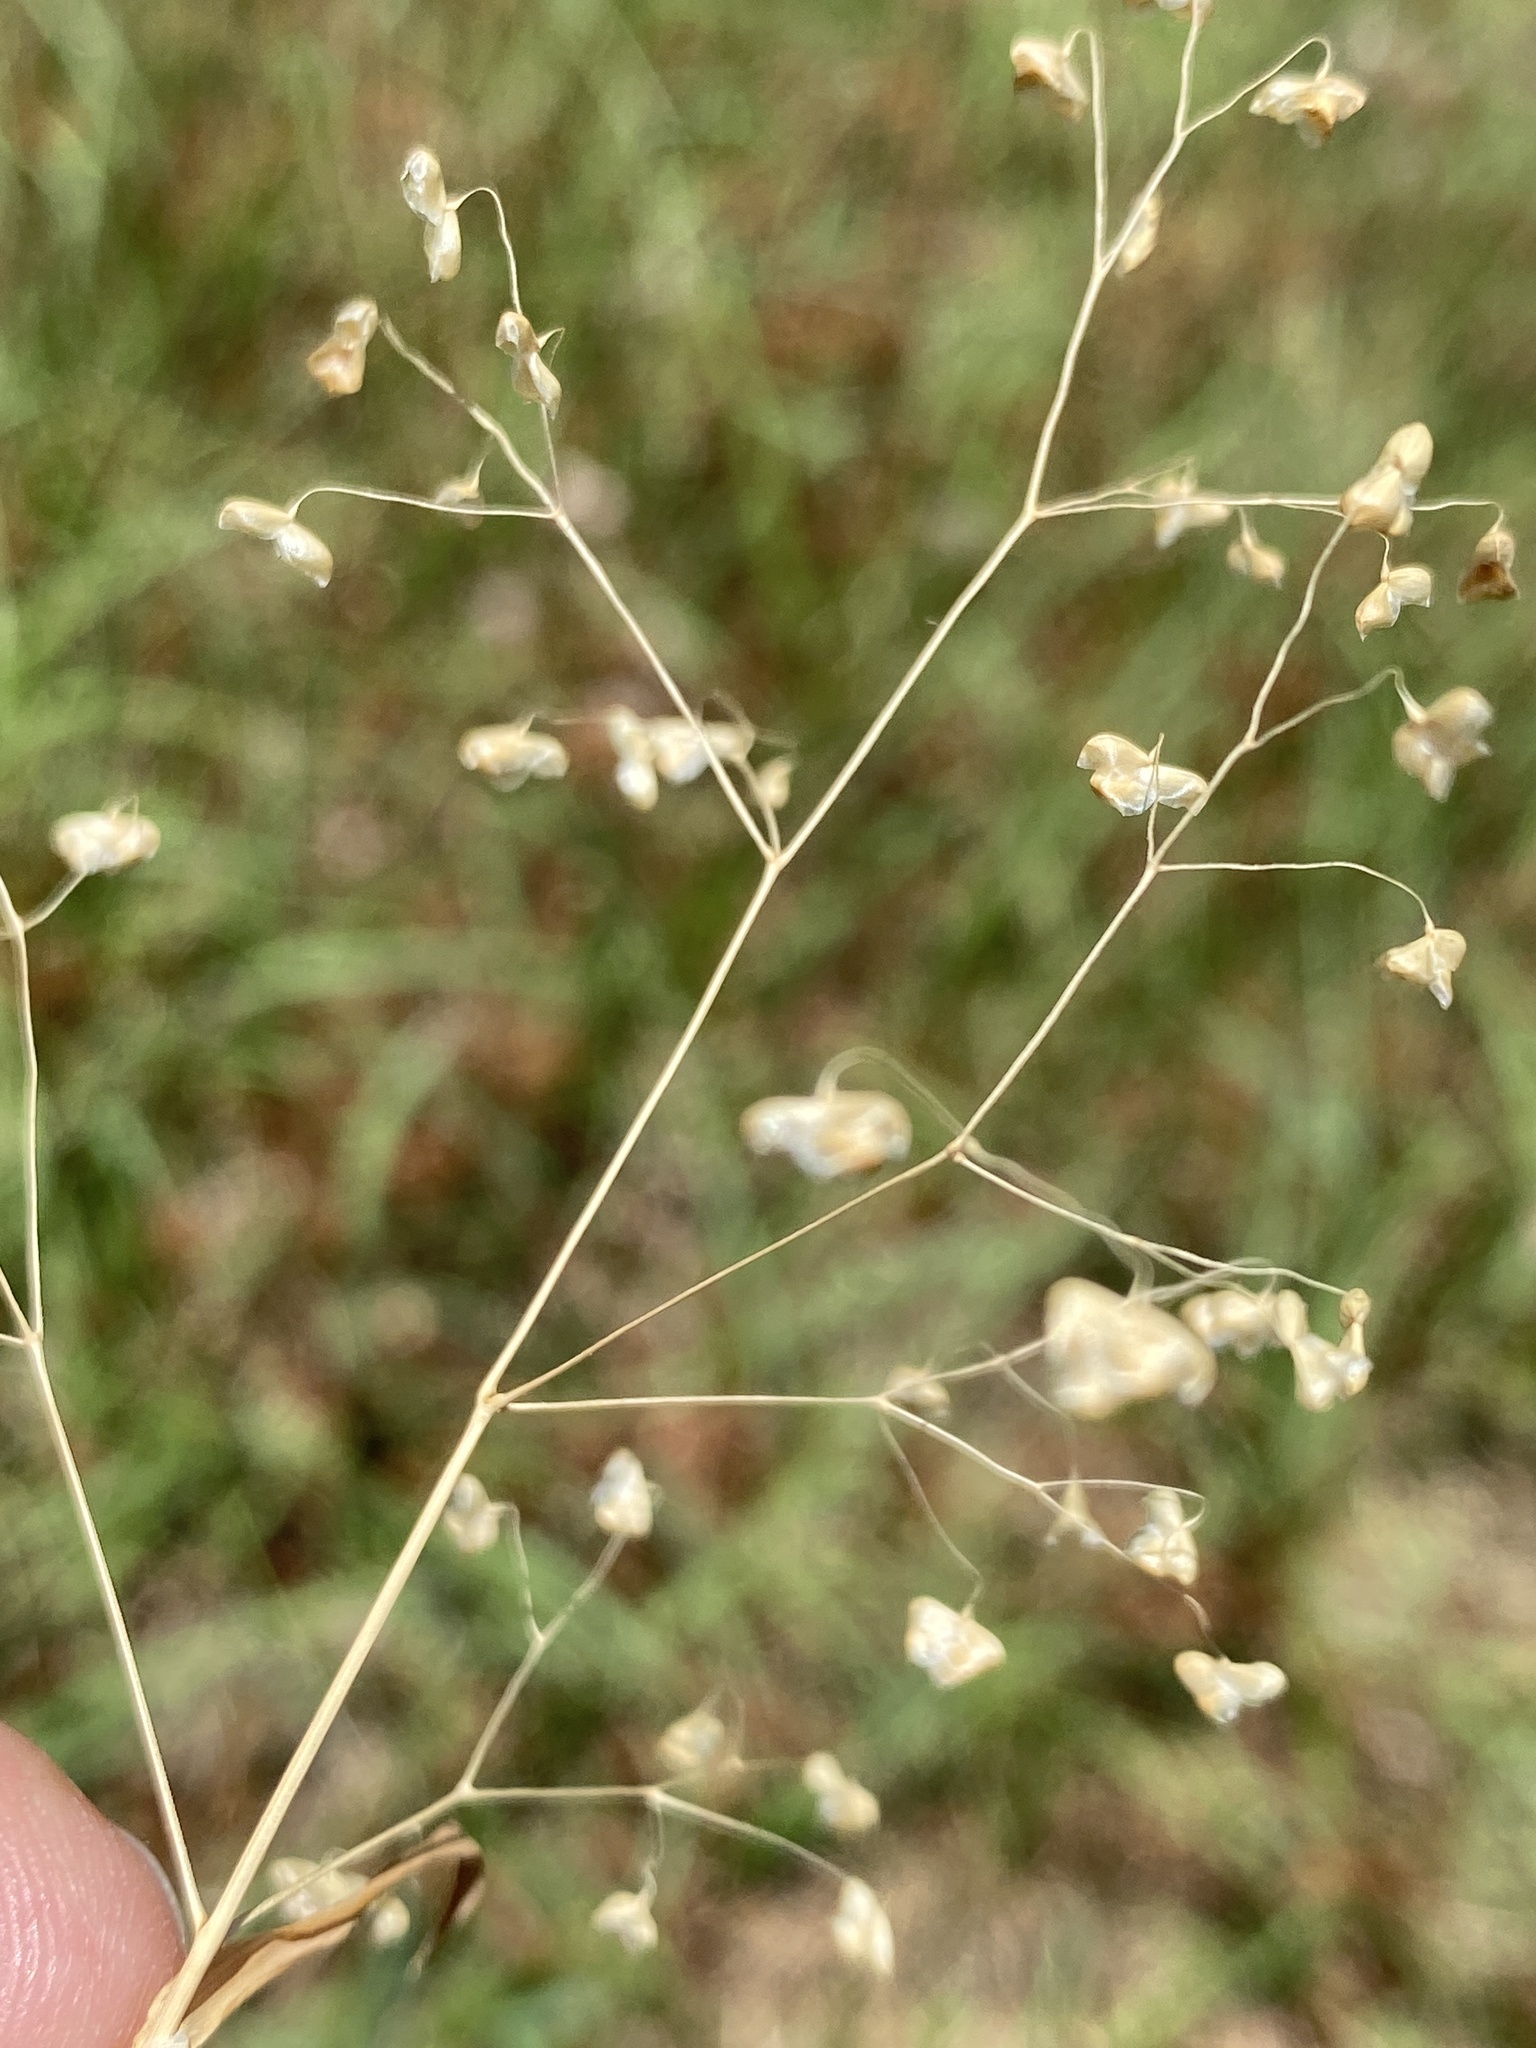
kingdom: Plantae
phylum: Tracheophyta
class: Liliopsida
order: Poales
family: Poaceae
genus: Briza
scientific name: Briza minor
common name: Lesser quaking-grass
